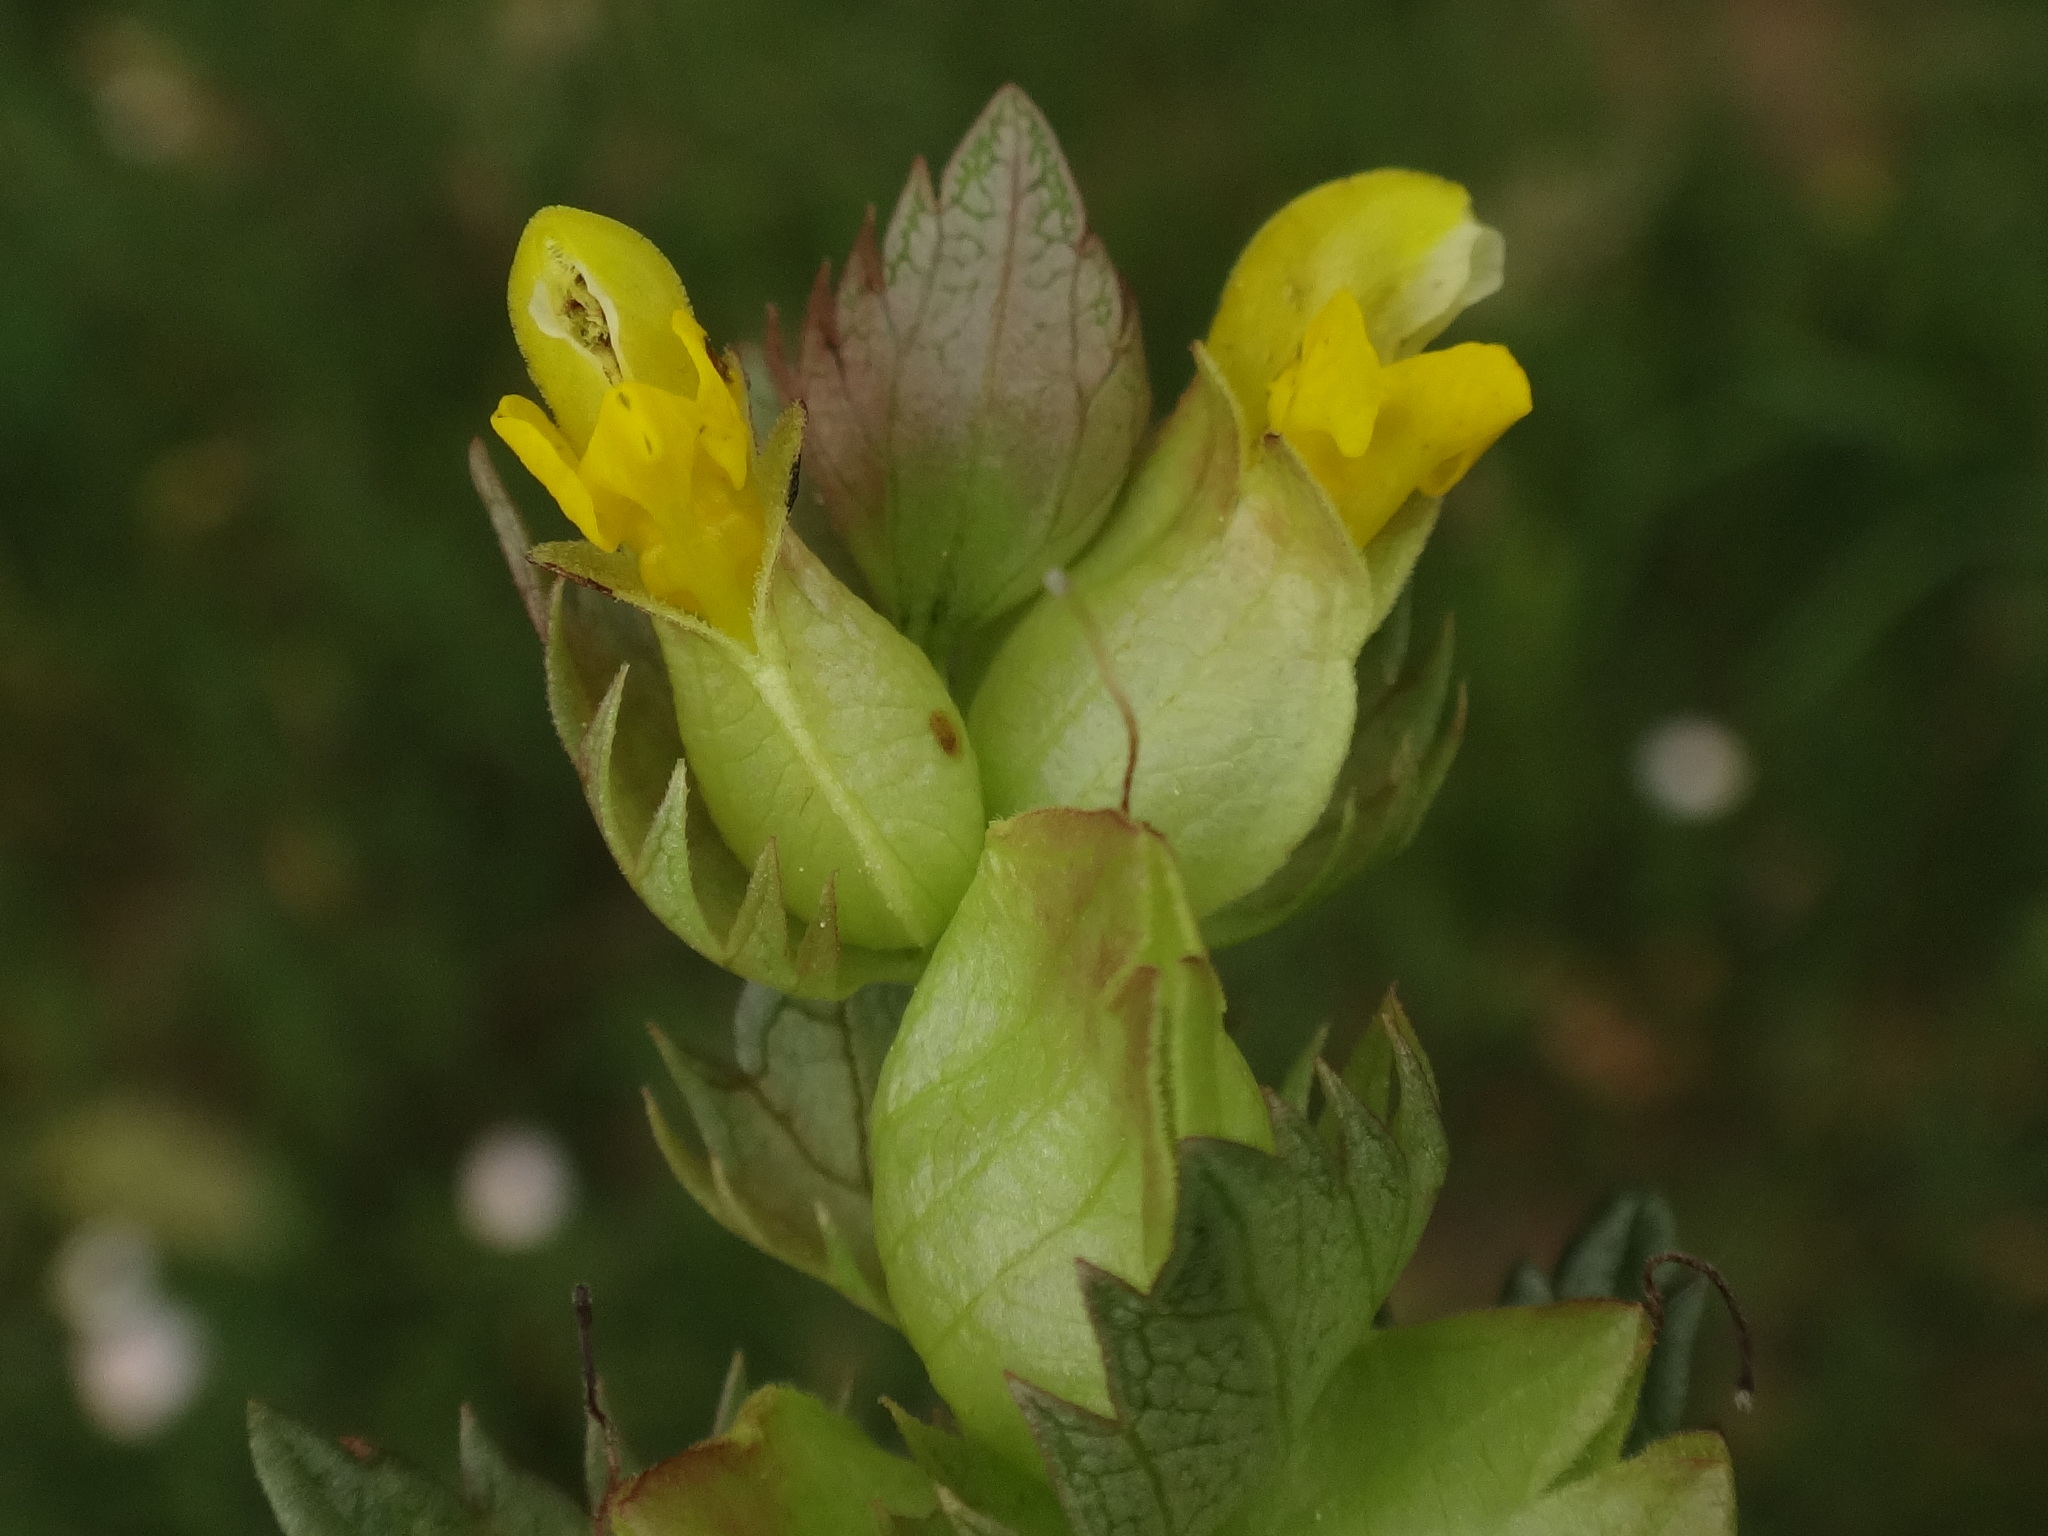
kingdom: Plantae
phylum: Tracheophyta
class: Magnoliopsida
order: Lamiales
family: Orobanchaceae
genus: Rhinanthus
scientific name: Rhinanthus minor
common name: Yellow-rattle
